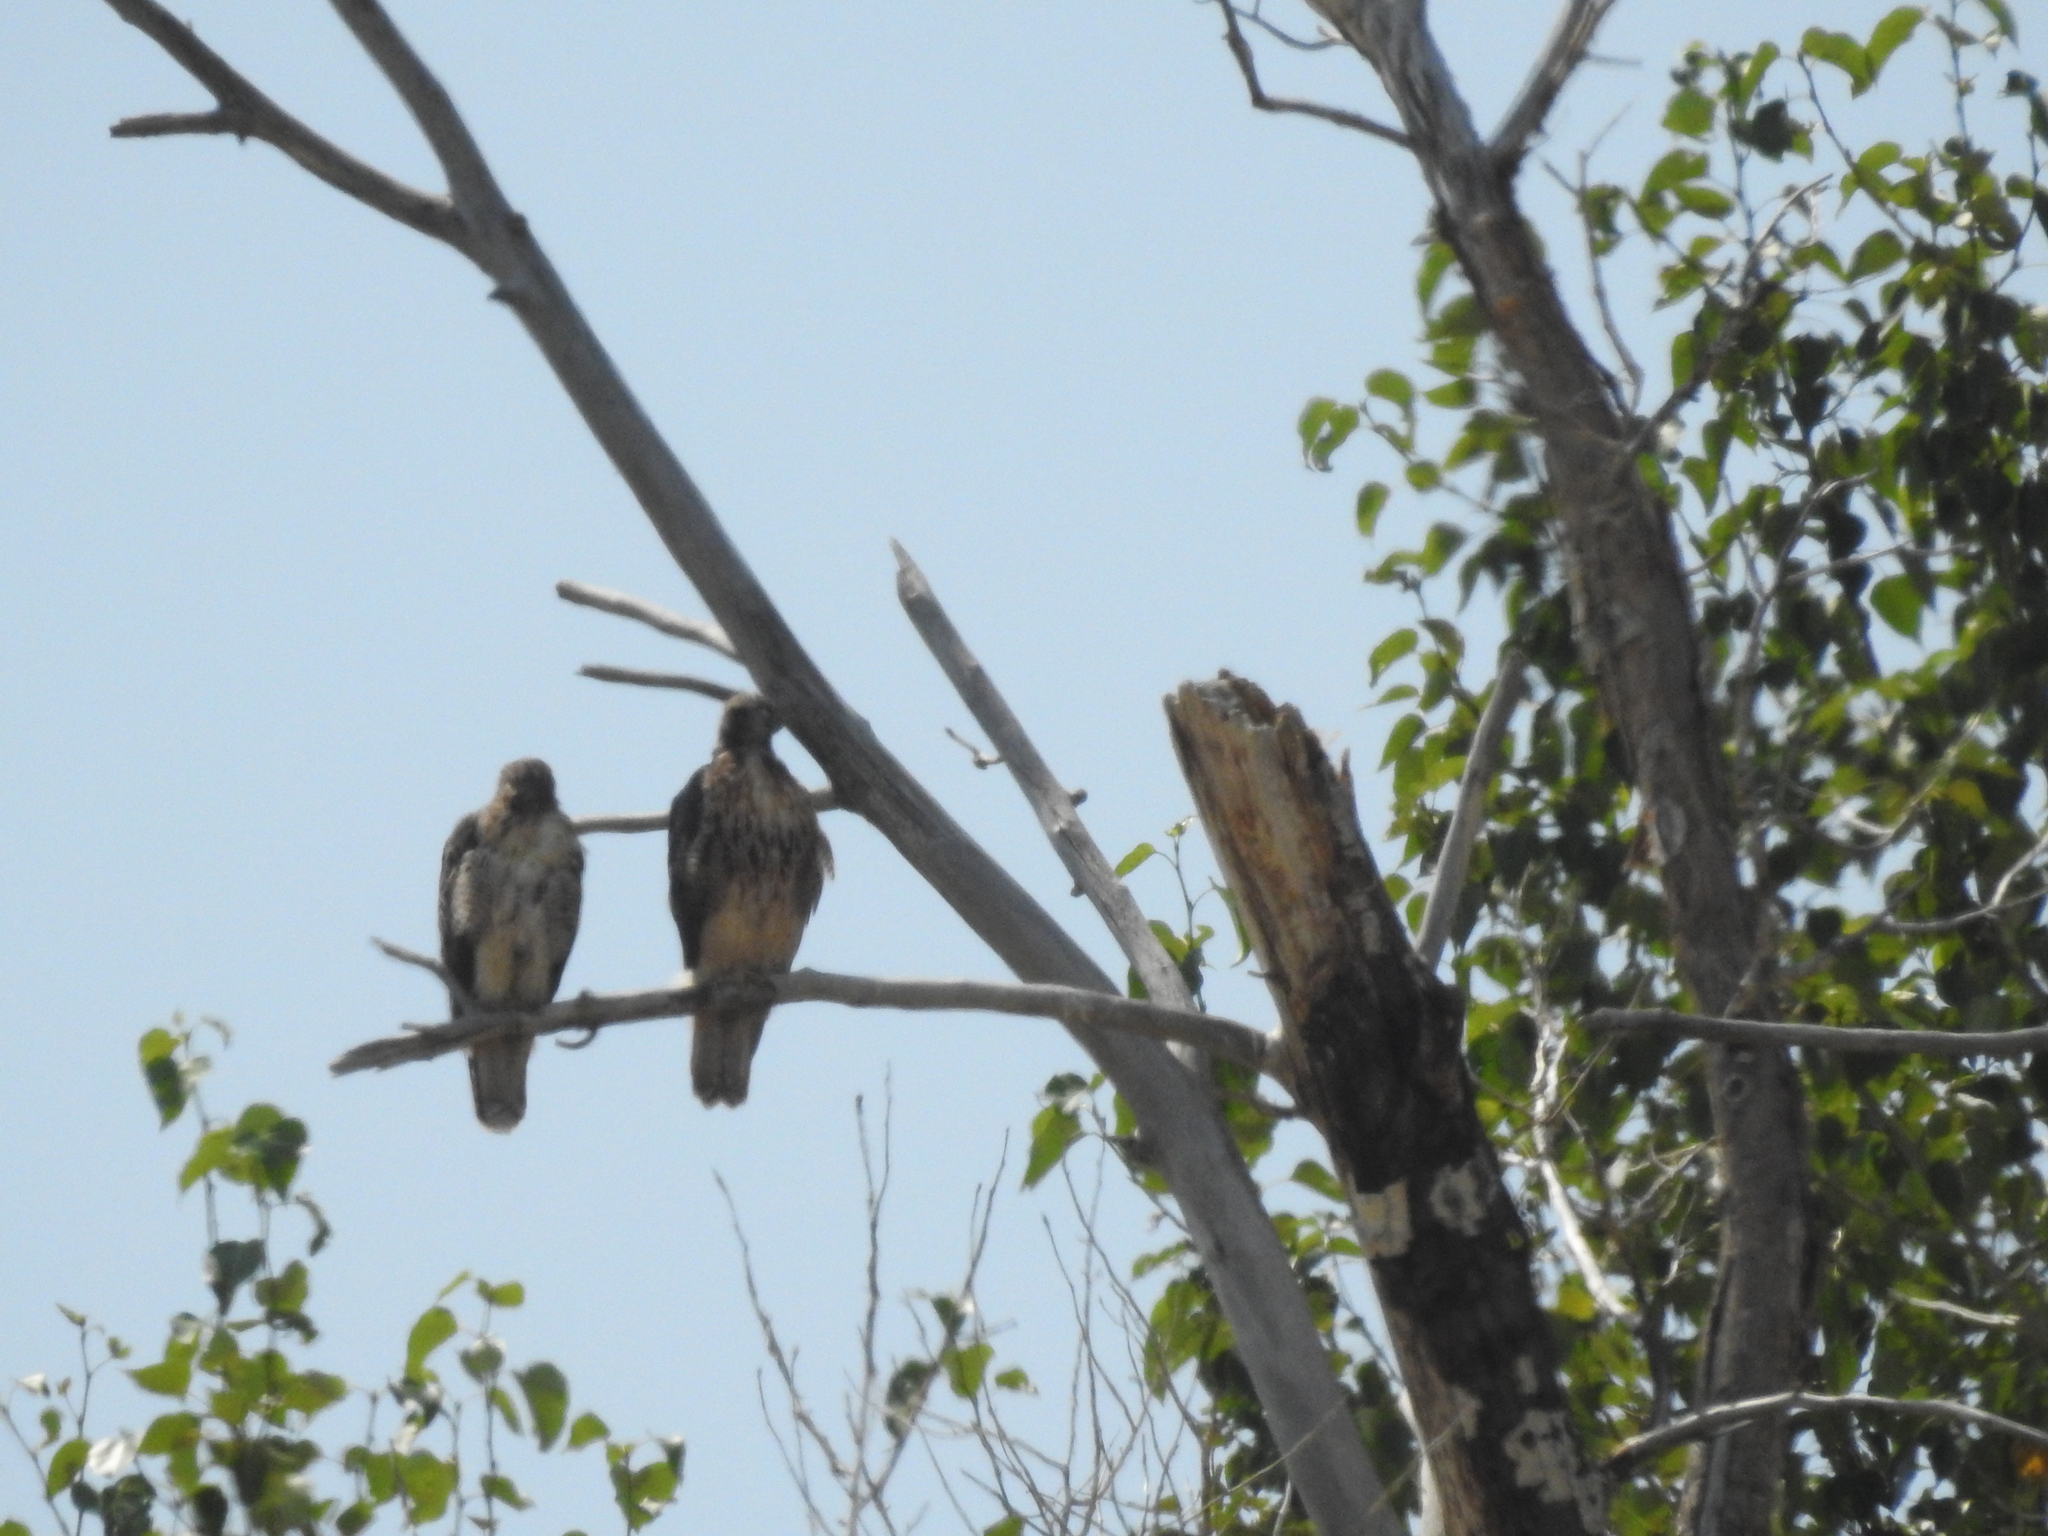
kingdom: Animalia
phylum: Chordata
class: Aves
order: Accipitriformes
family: Accipitridae
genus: Buteo
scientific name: Buteo jamaicensis
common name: Red-tailed hawk
